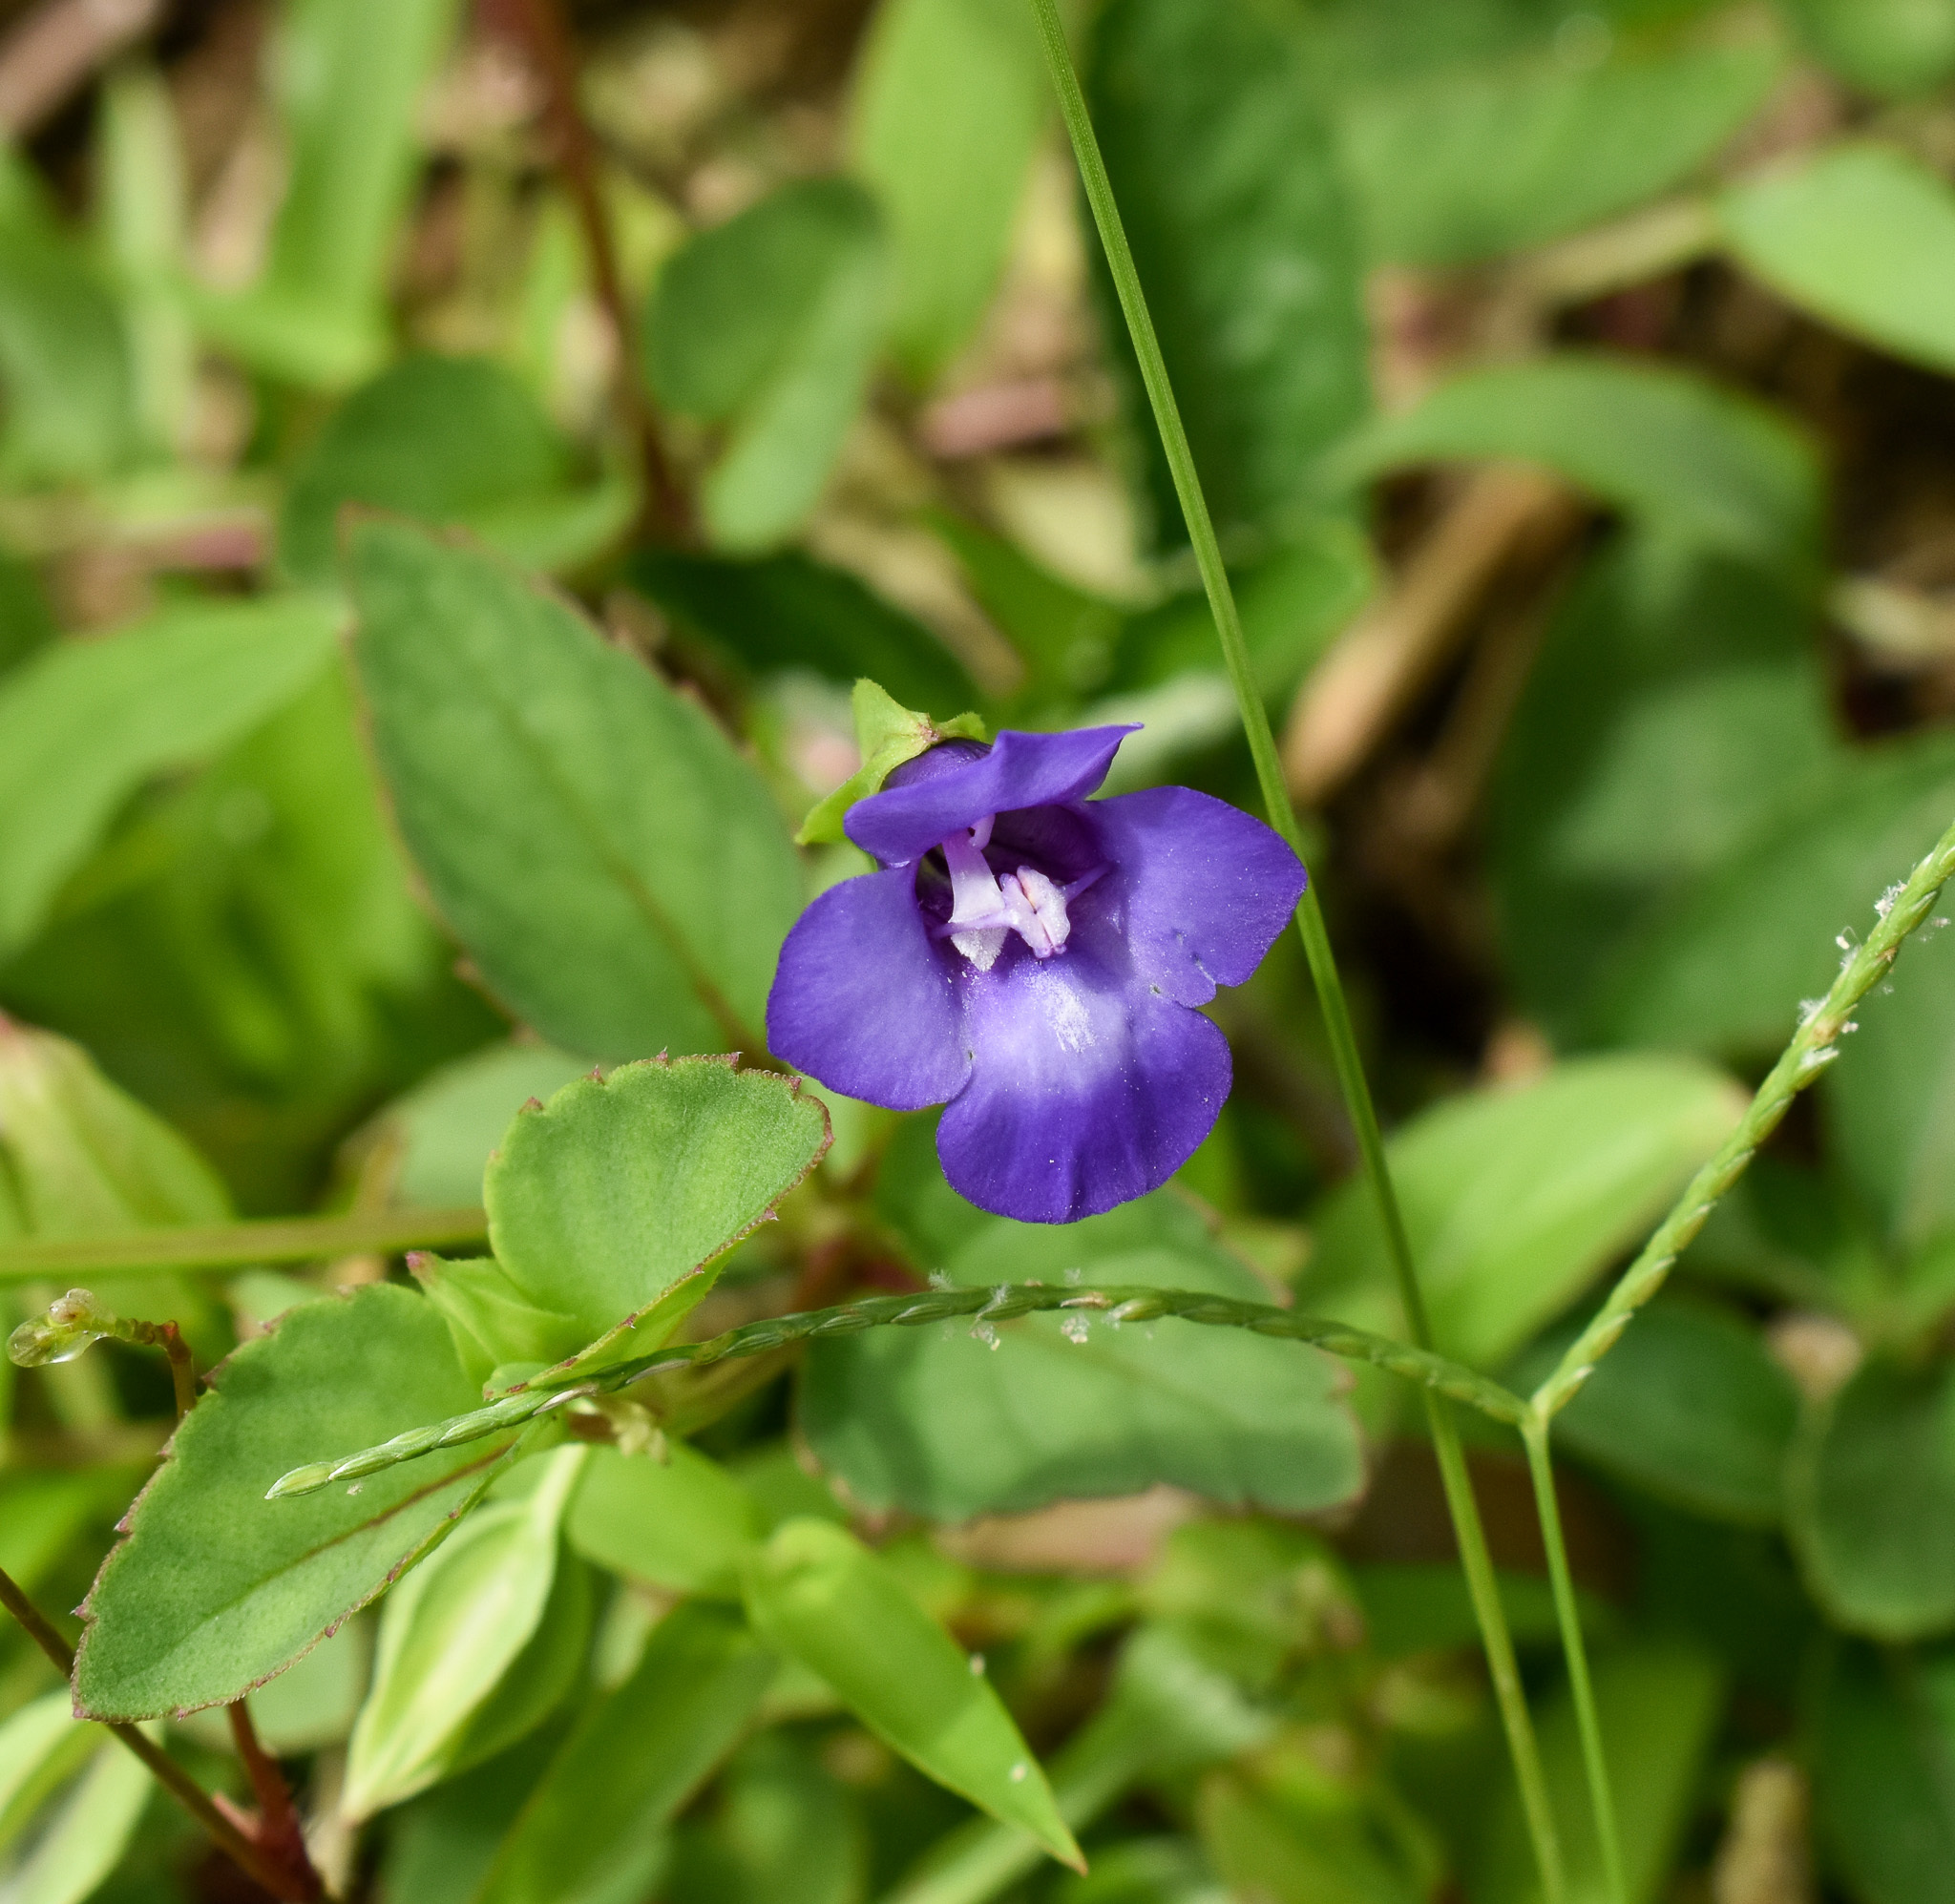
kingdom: Plantae
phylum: Tracheophyta
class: Magnoliopsida
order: Lamiales
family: Linderniaceae
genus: Torenia
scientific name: Torenia asiatica
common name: Wishbone flower
